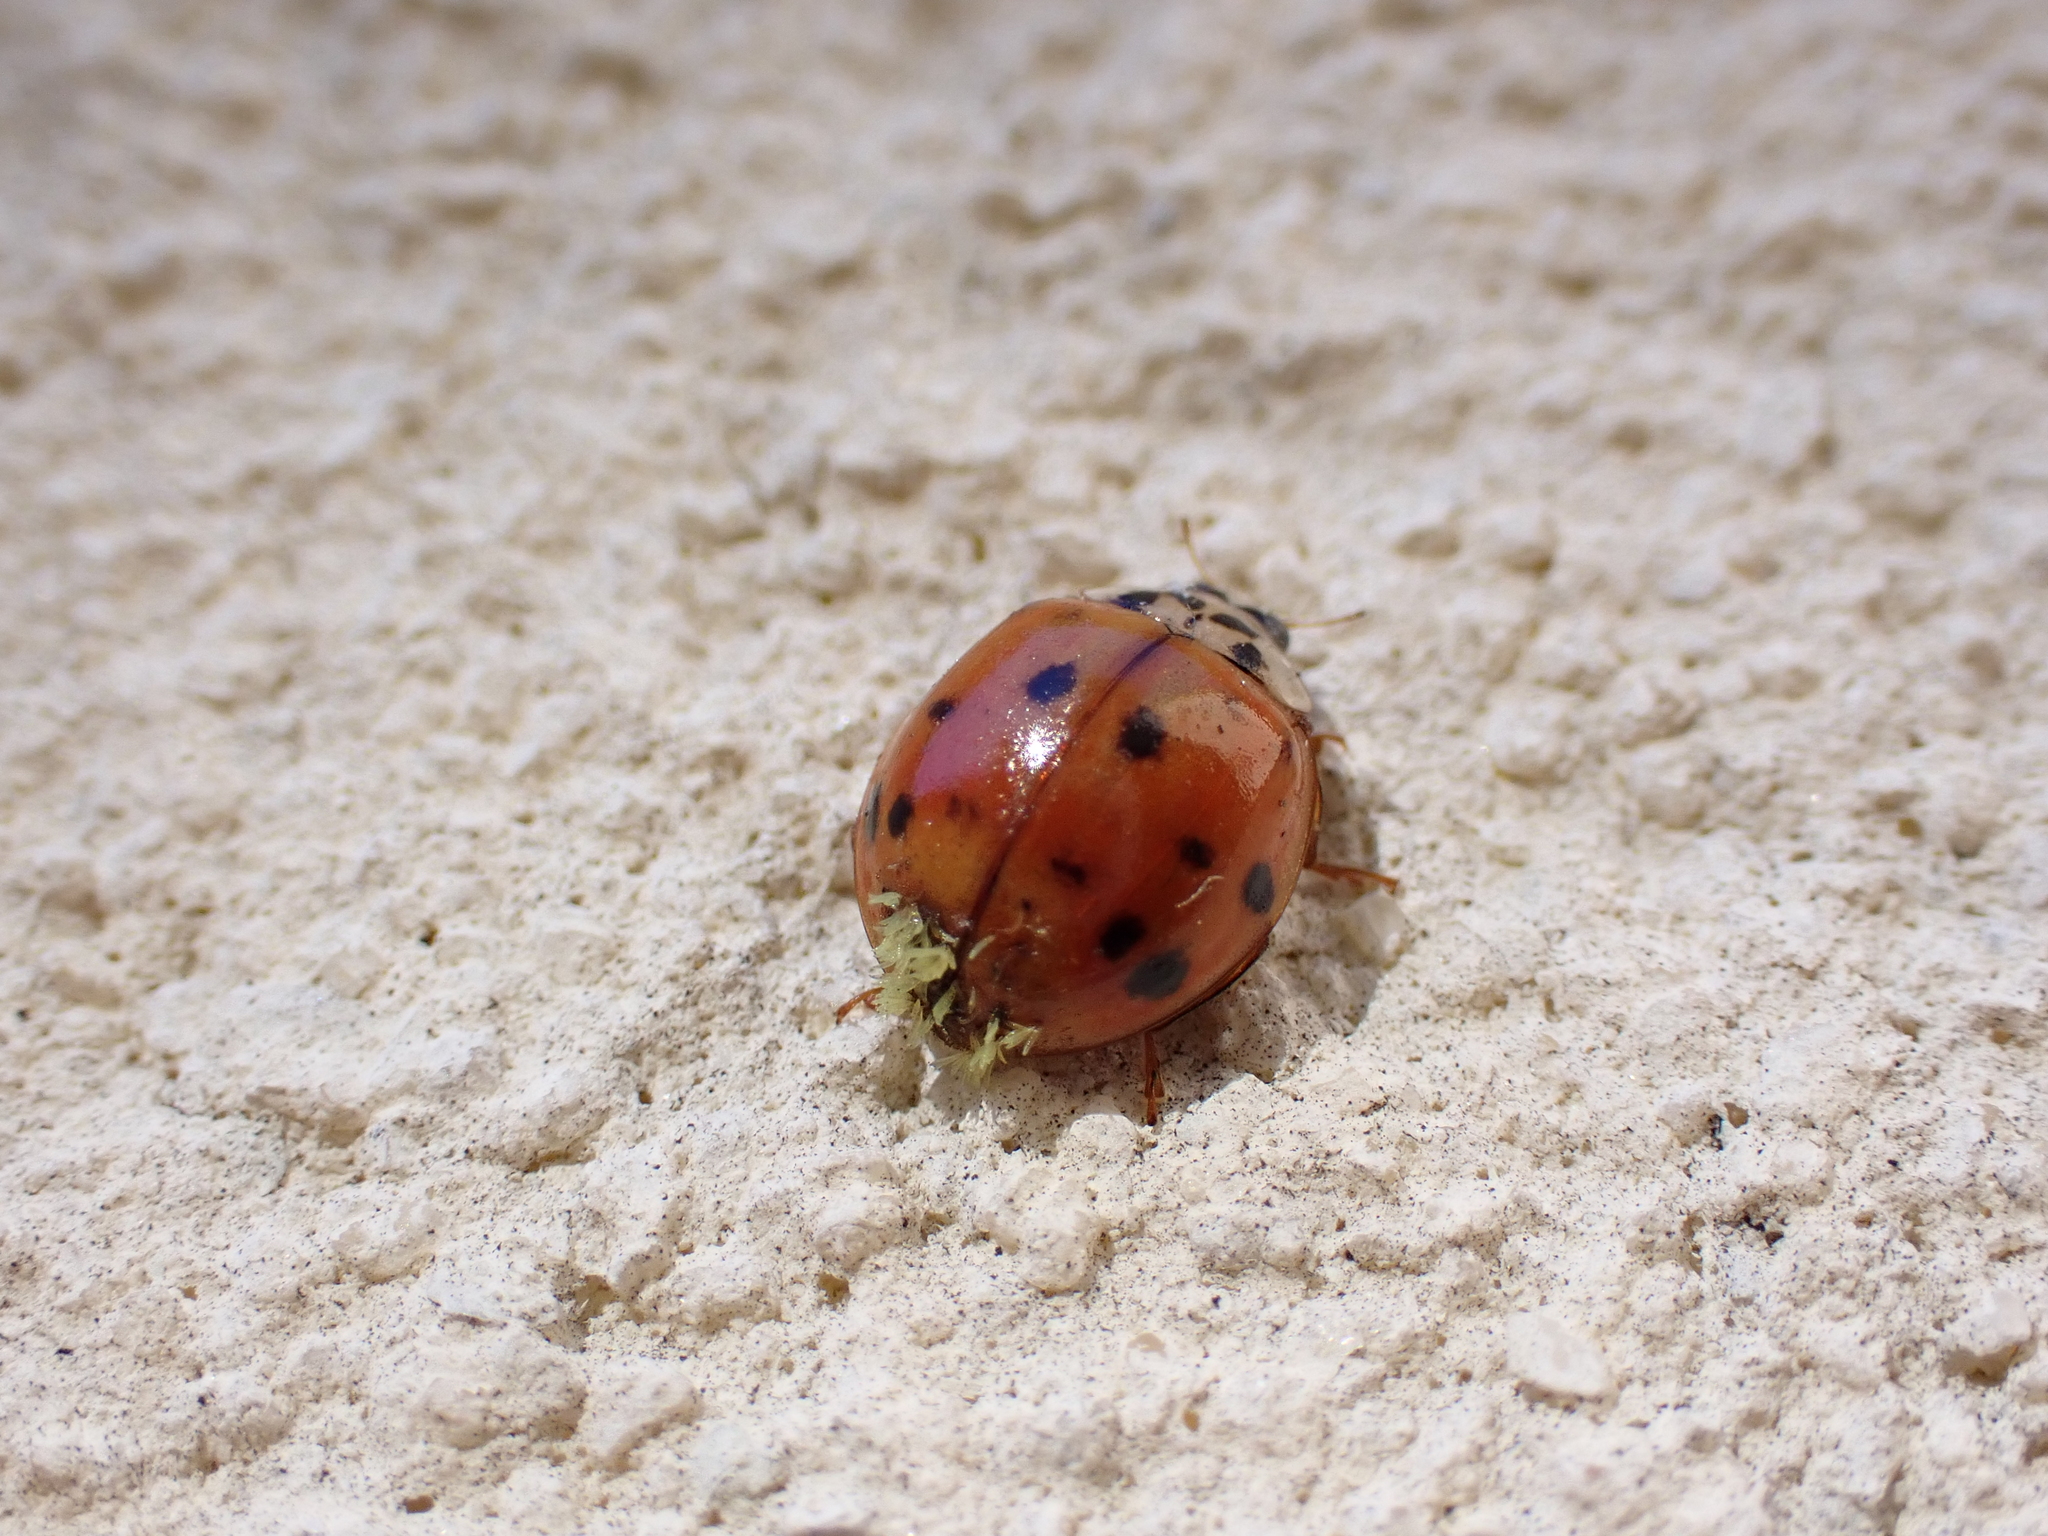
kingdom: Fungi
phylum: Ascomycota
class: Laboulbeniomycetes
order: Laboulbeniales
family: Laboulbeniaceae
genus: Hesperomyces
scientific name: Hesperomyces harmoniae
